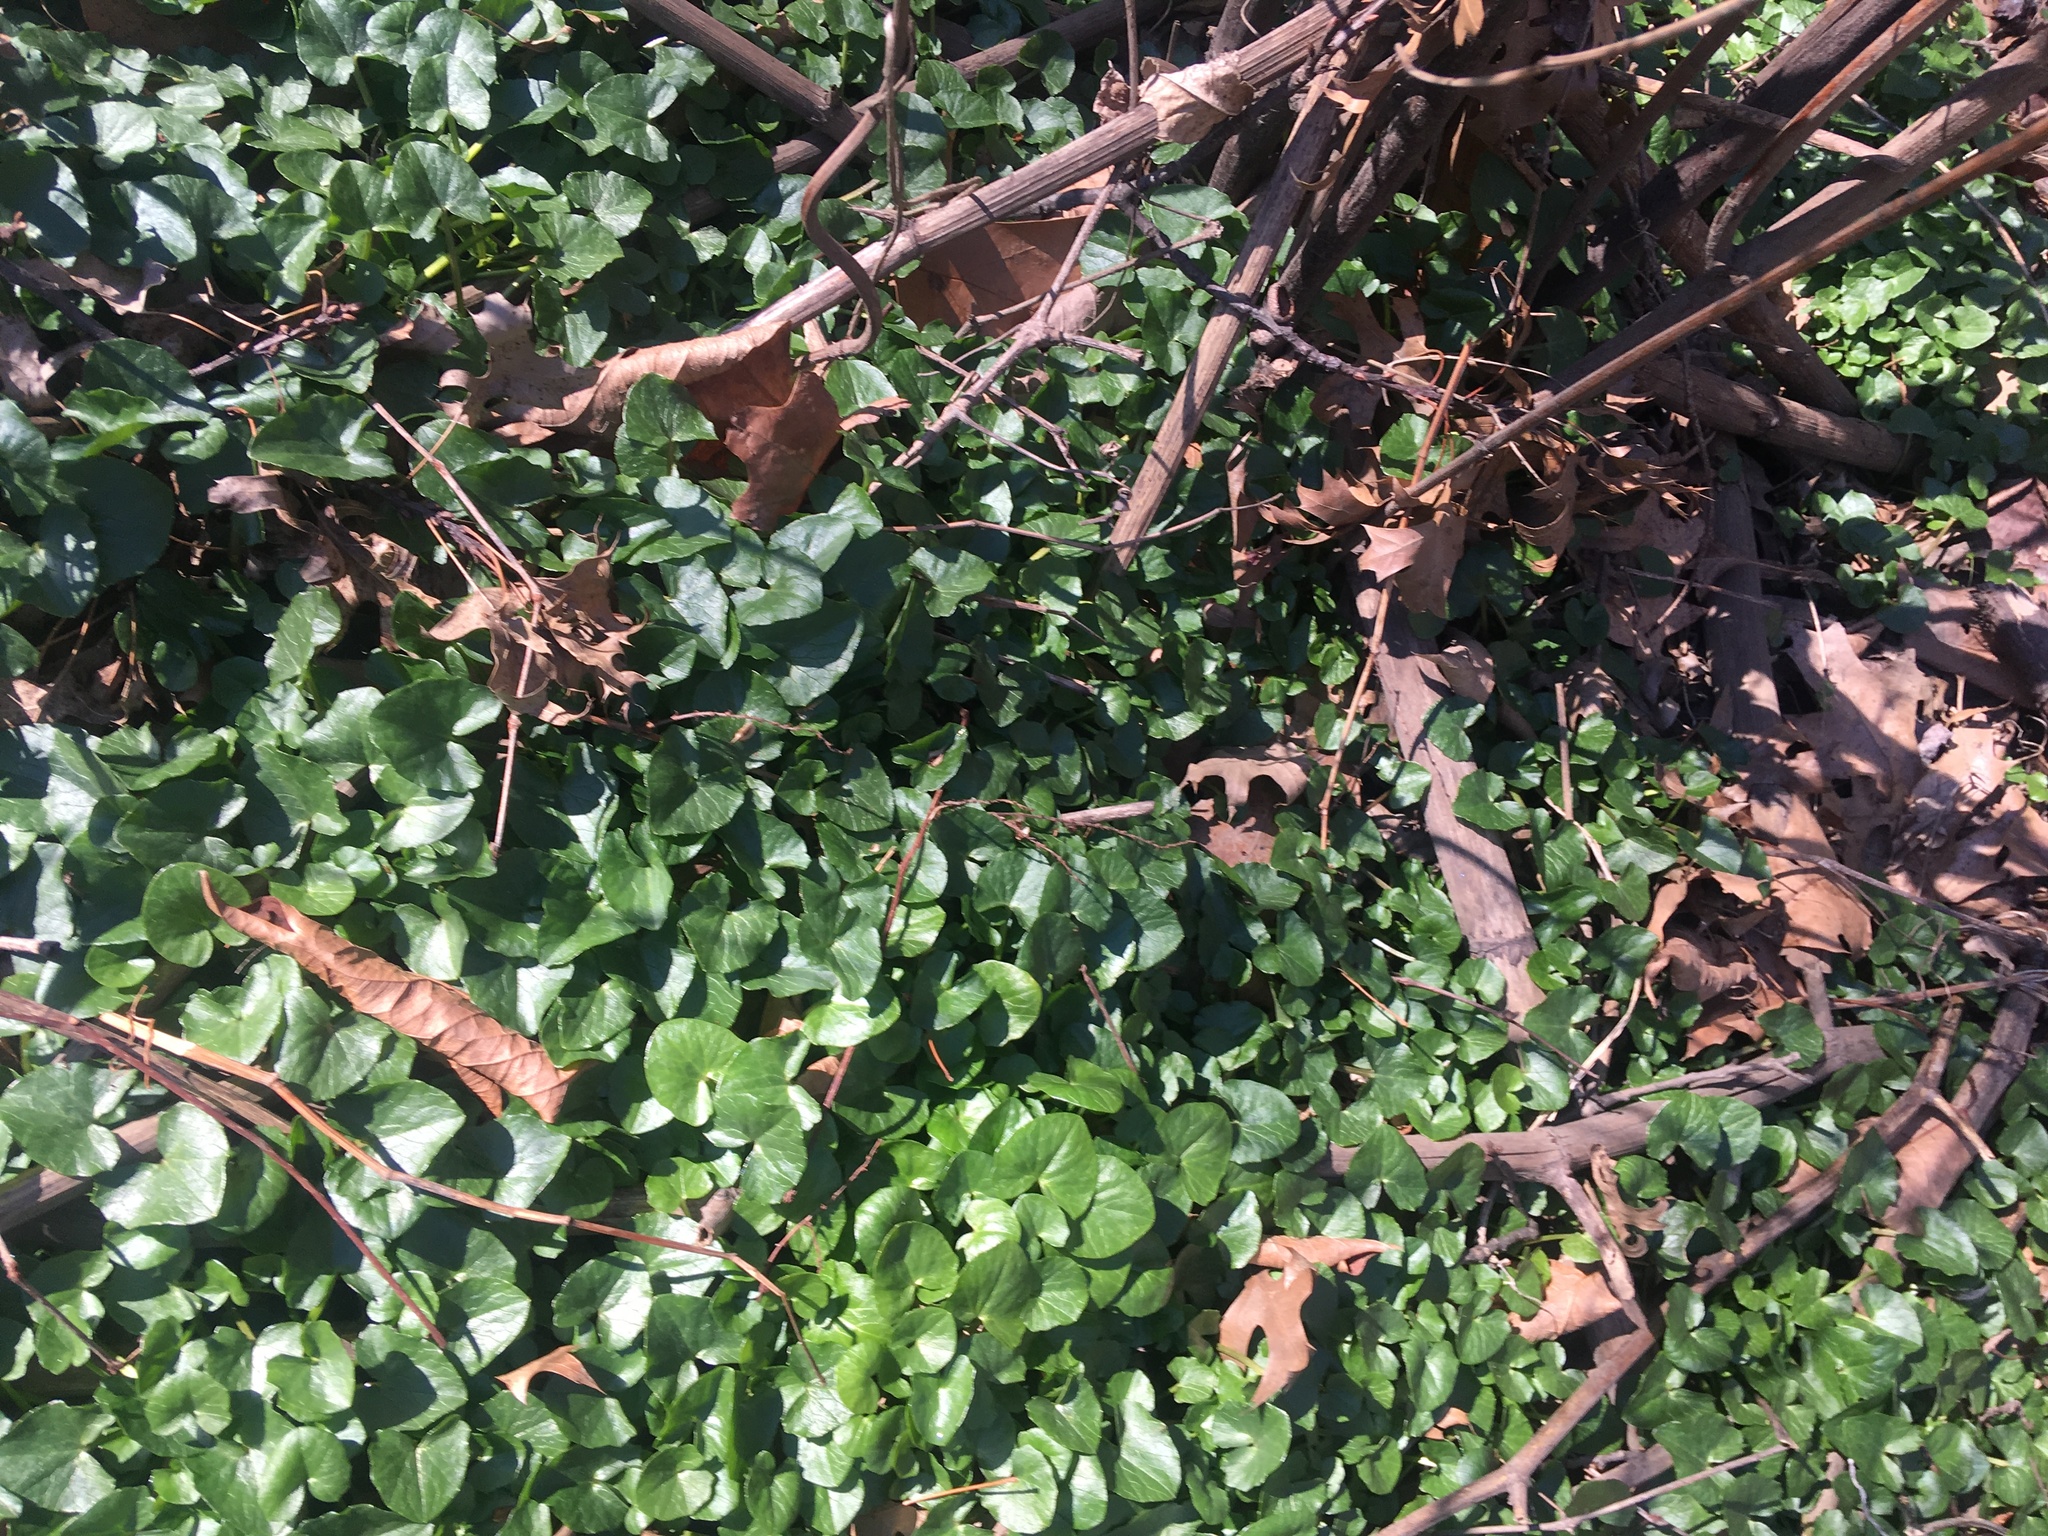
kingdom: Plantae
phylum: Tracheophyta
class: Magnoliopsida
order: Ranunculales
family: Ranunculaceae
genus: Ficaria
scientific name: Ficaria verna
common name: Lesser celandine
